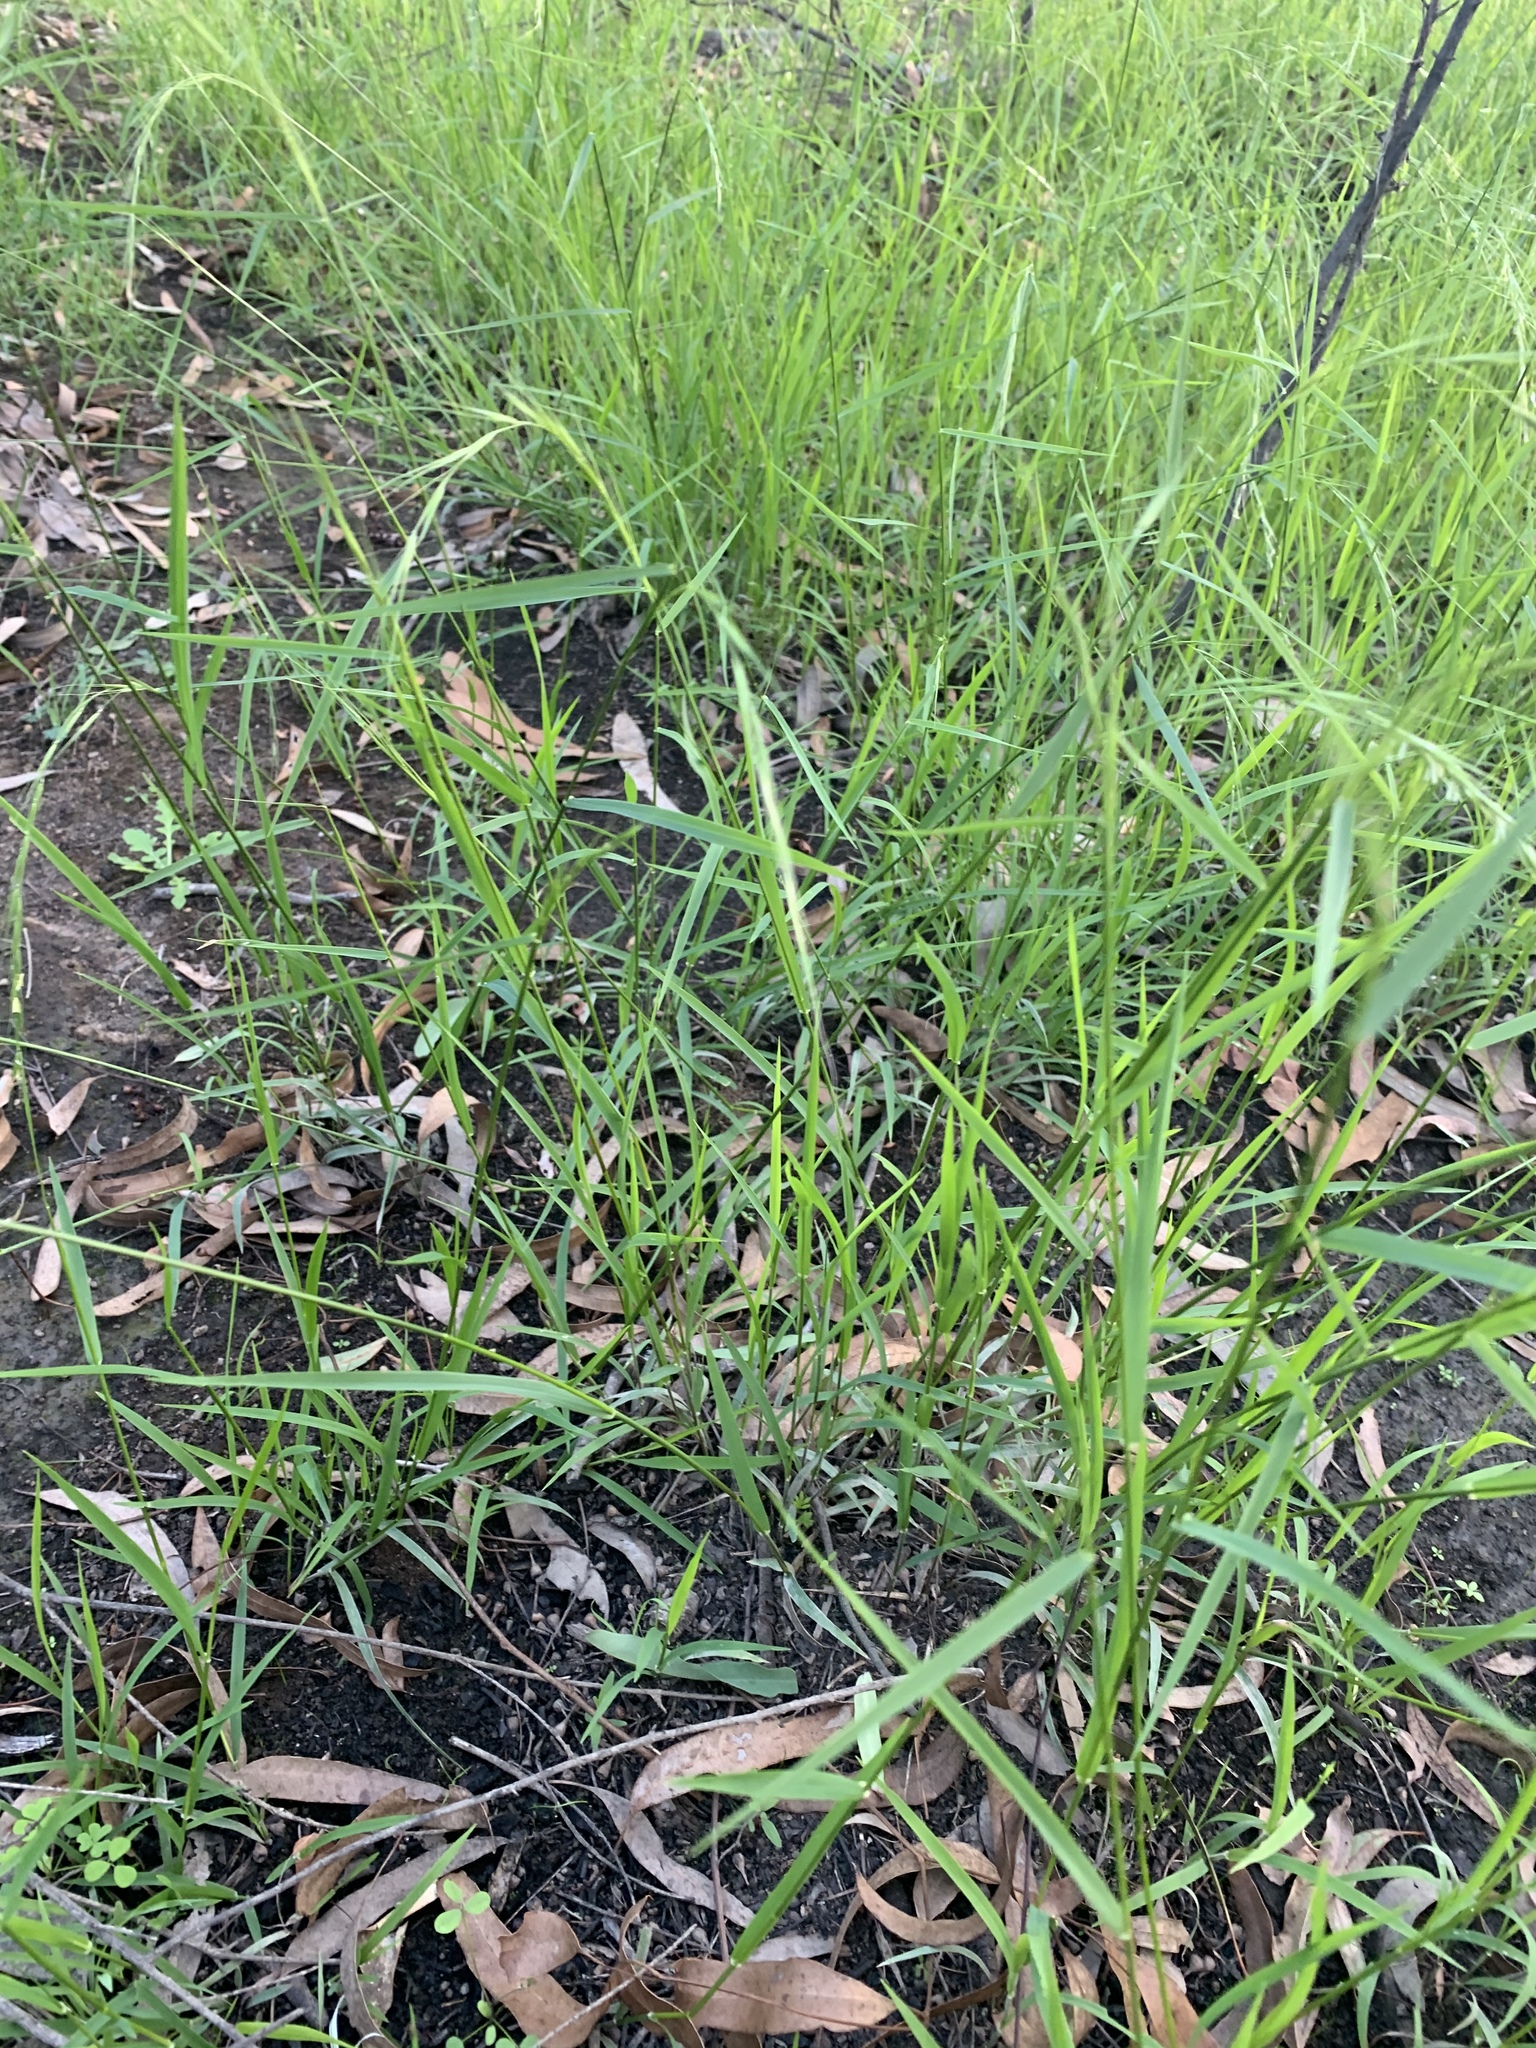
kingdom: Plantae
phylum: Tracheophyta
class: Liliopsida
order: Poales
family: Poaceae
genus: Microlaena
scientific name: Microlaena stipoides
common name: Meadow ricegrass
